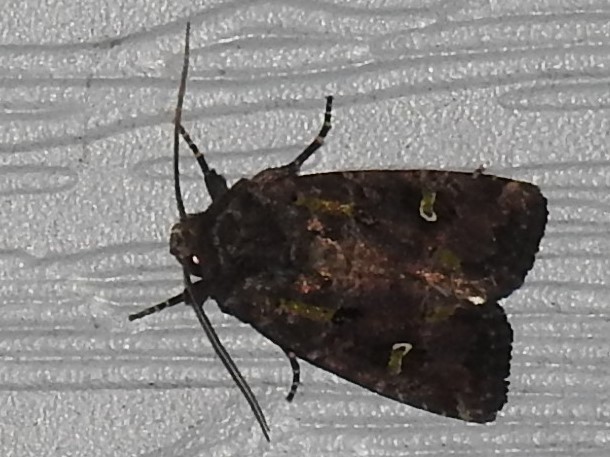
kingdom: Animalia
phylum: Arthropoda
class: Insecta
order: Lepidoptera
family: Noctuidae
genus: Lacinipolia
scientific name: Lacinipolia renigera
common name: Kidney-spotted minor
